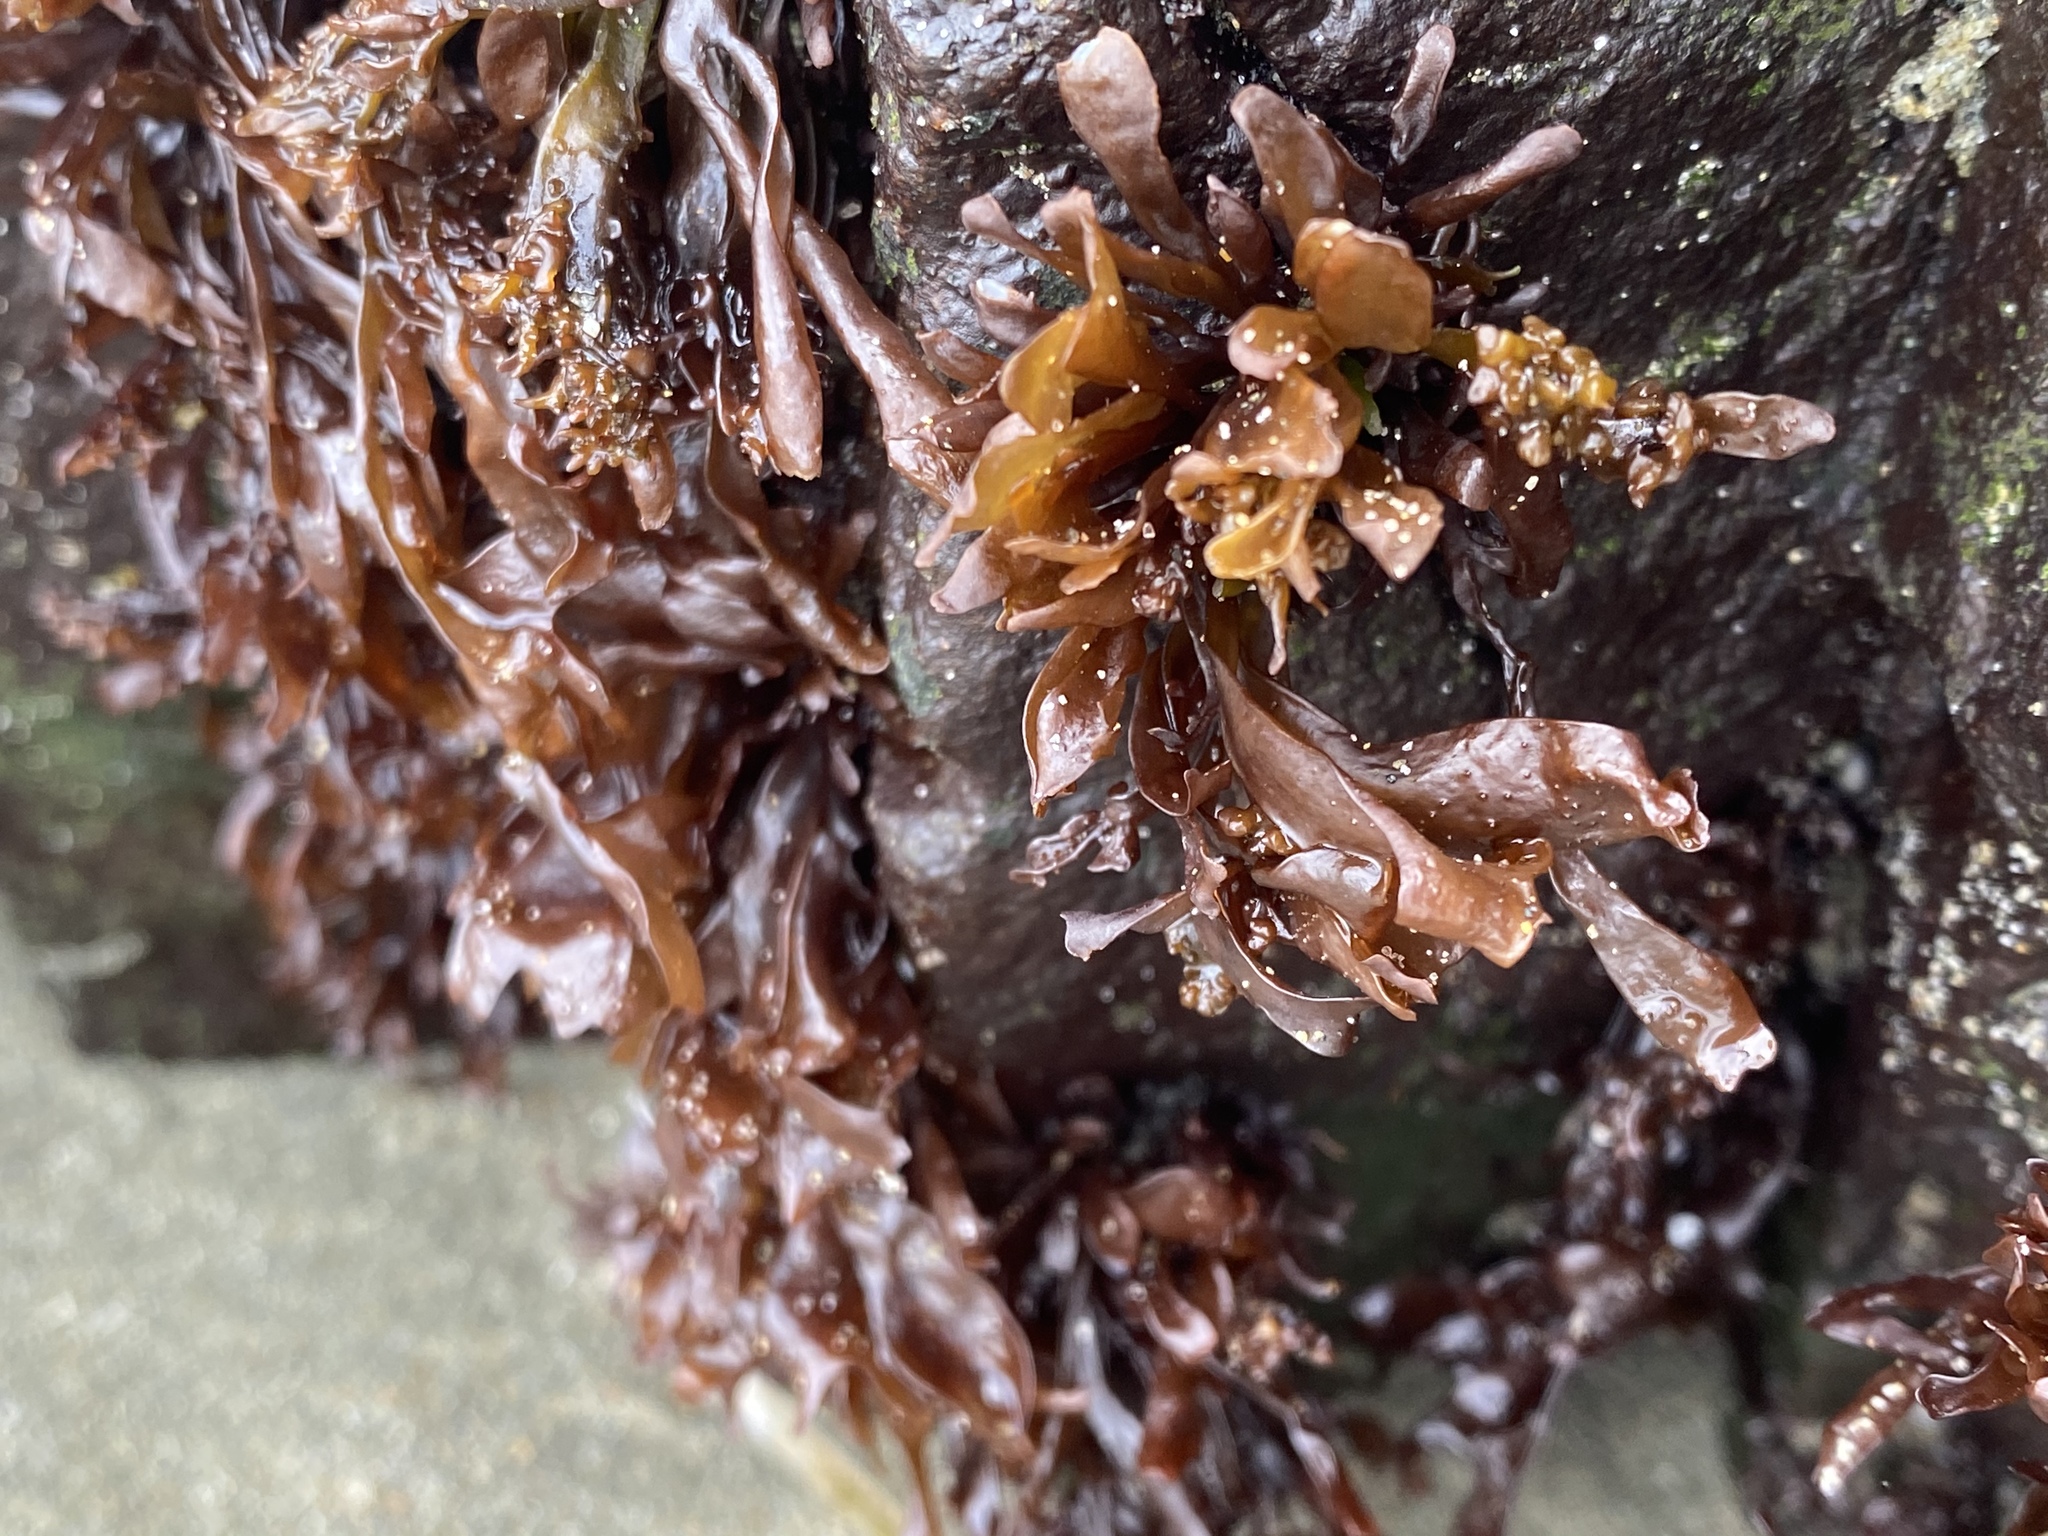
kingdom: Plantae
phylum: Rhodophyta
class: Florideophyceae
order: Gigartinales
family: Phyllophoraceae
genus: Mastocarpus
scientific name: Mastocarpus papillatus
